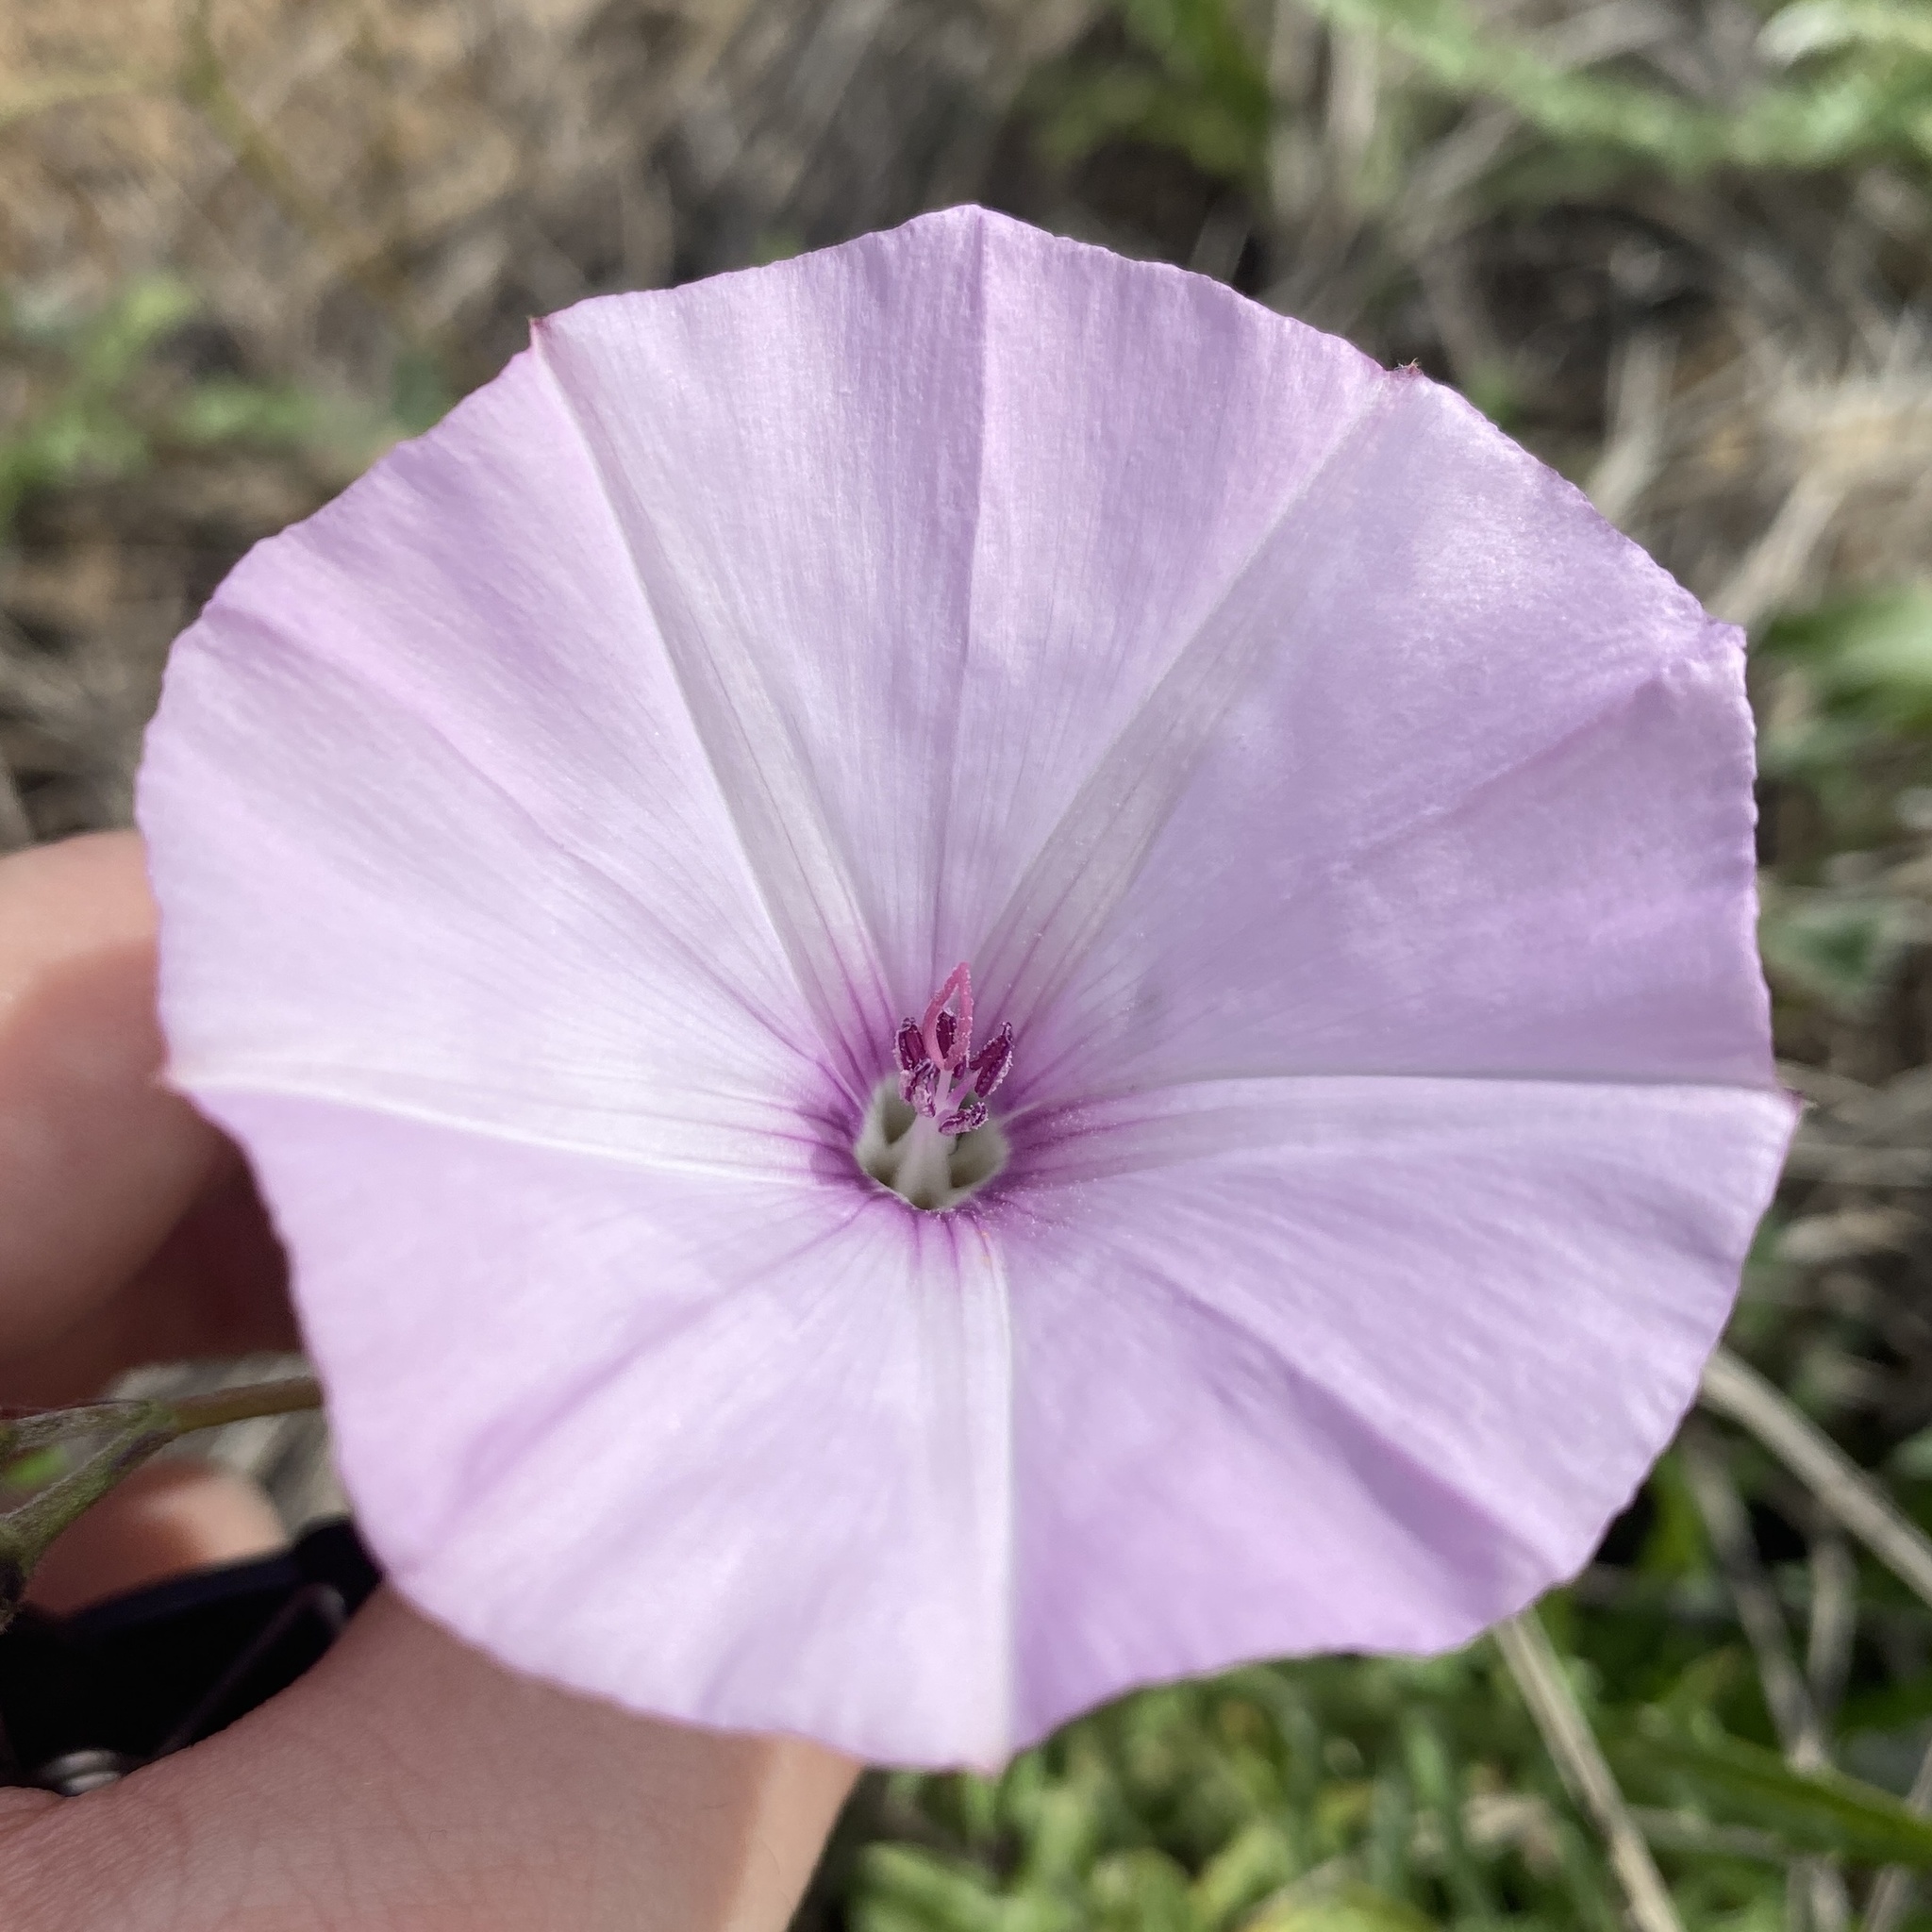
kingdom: Plantae
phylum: Tracheophyta
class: Magnoliopsida
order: Solanales
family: Convolvulaceae
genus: Convolvulus
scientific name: Convolvulus althaeoides
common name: Mallow bindweed
